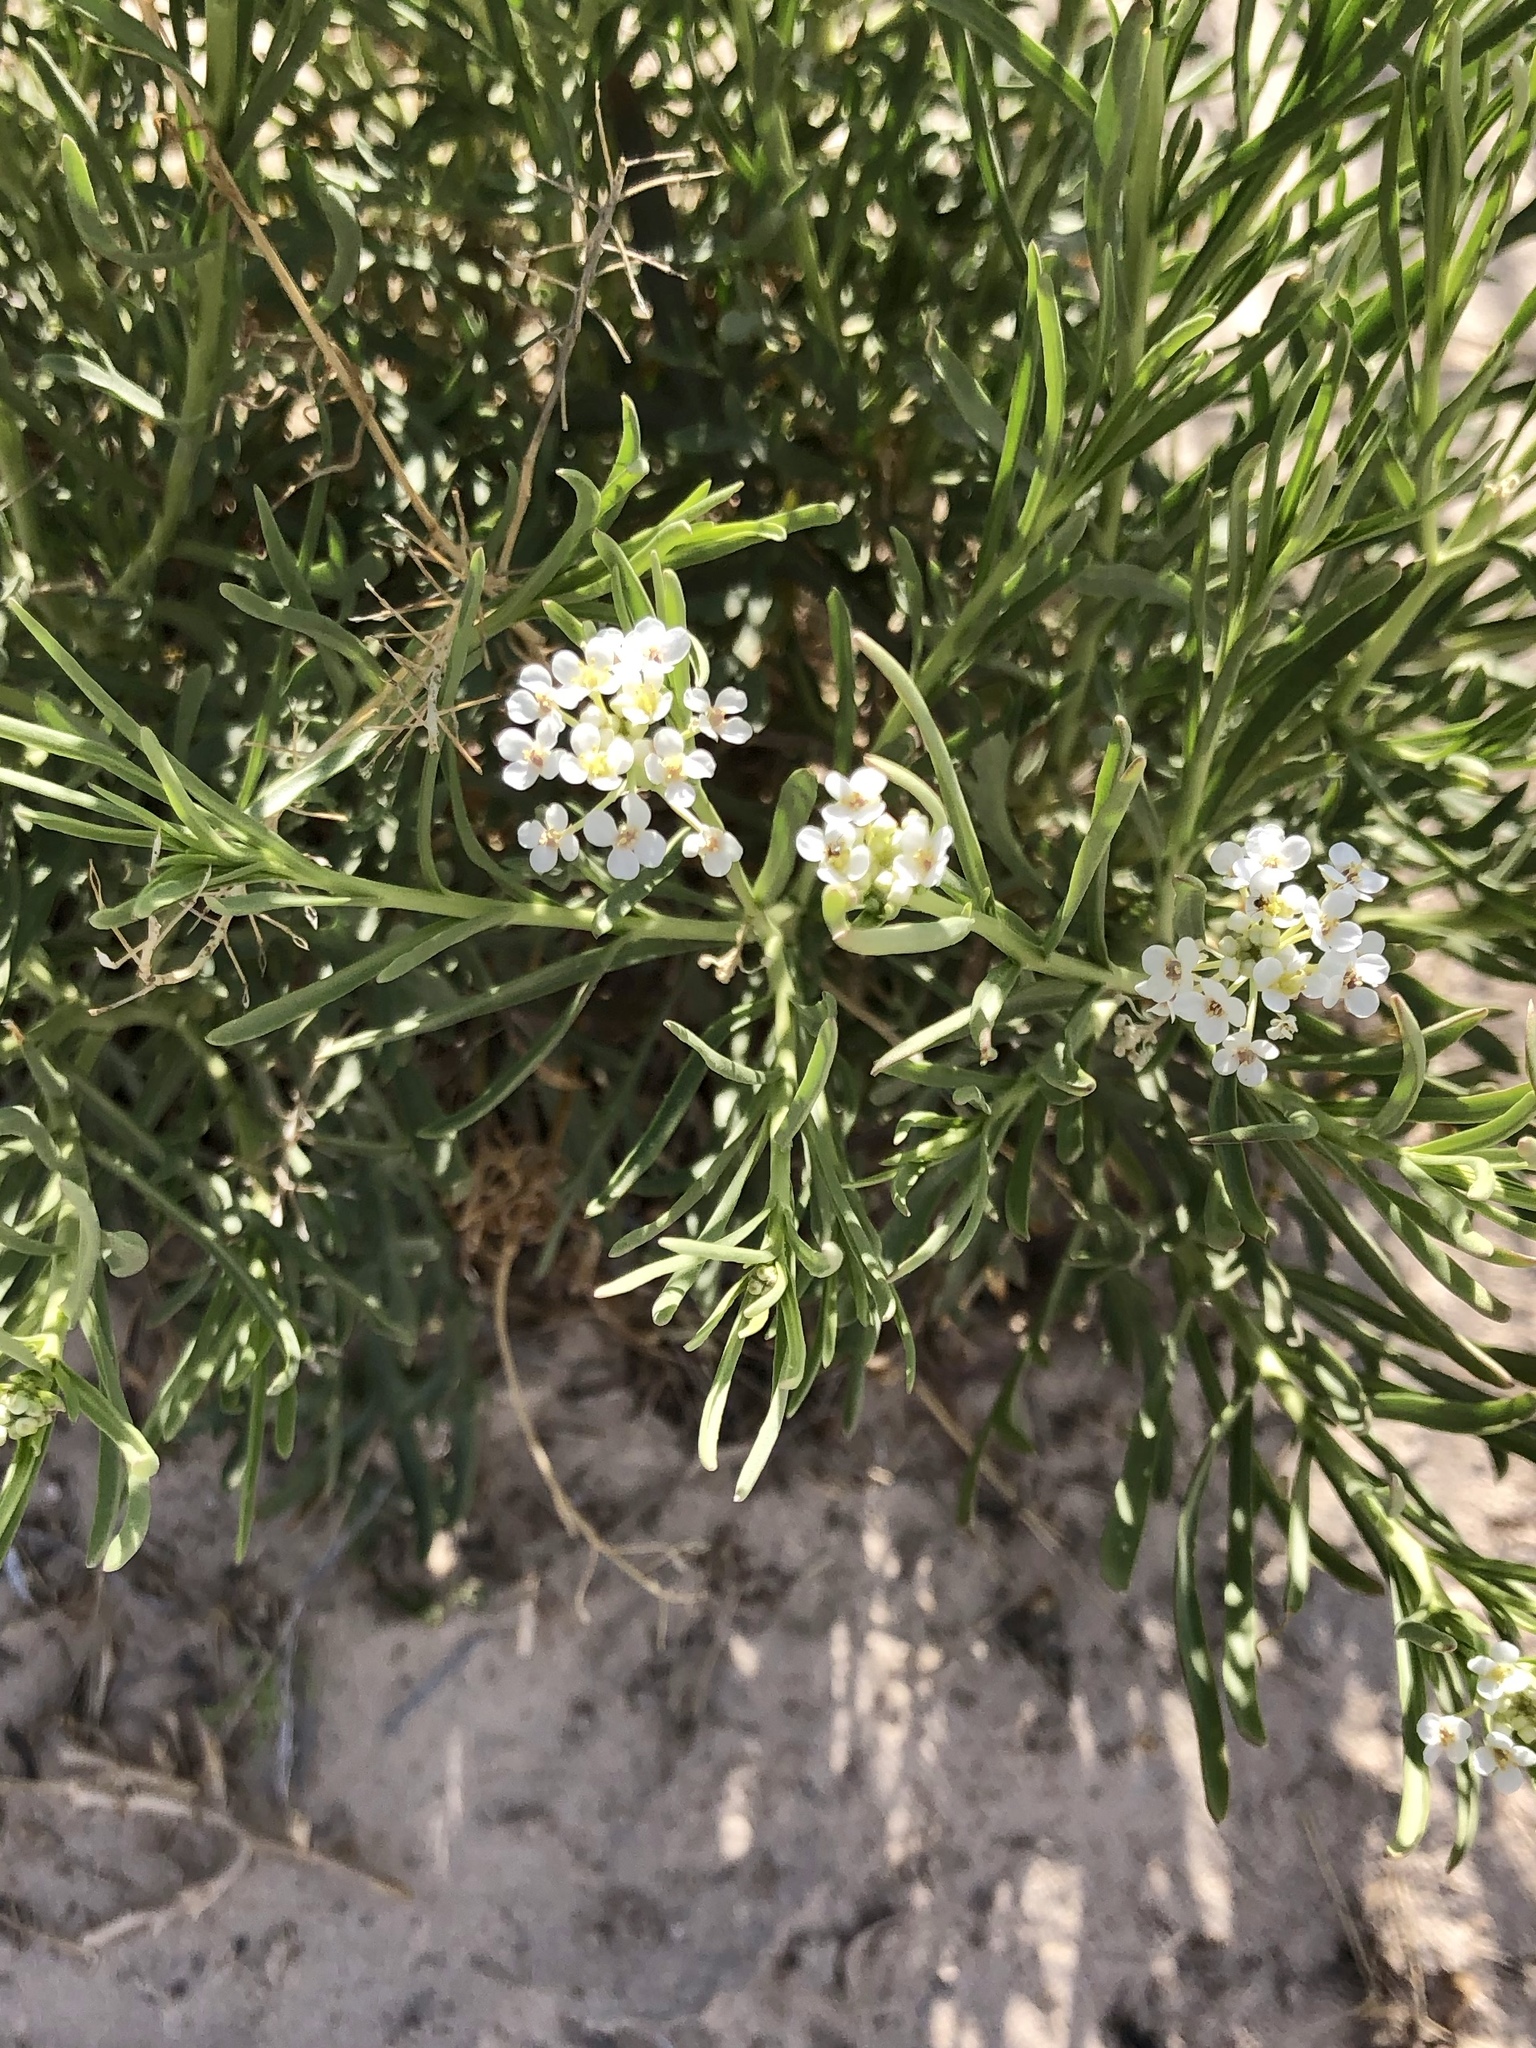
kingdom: Plantae
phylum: Tracheophyta
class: Magnoliopsida
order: Brassicales
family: Brassicaceae
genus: Lepidium
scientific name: Lepidium alyssoides
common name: Mesa pepperweed
